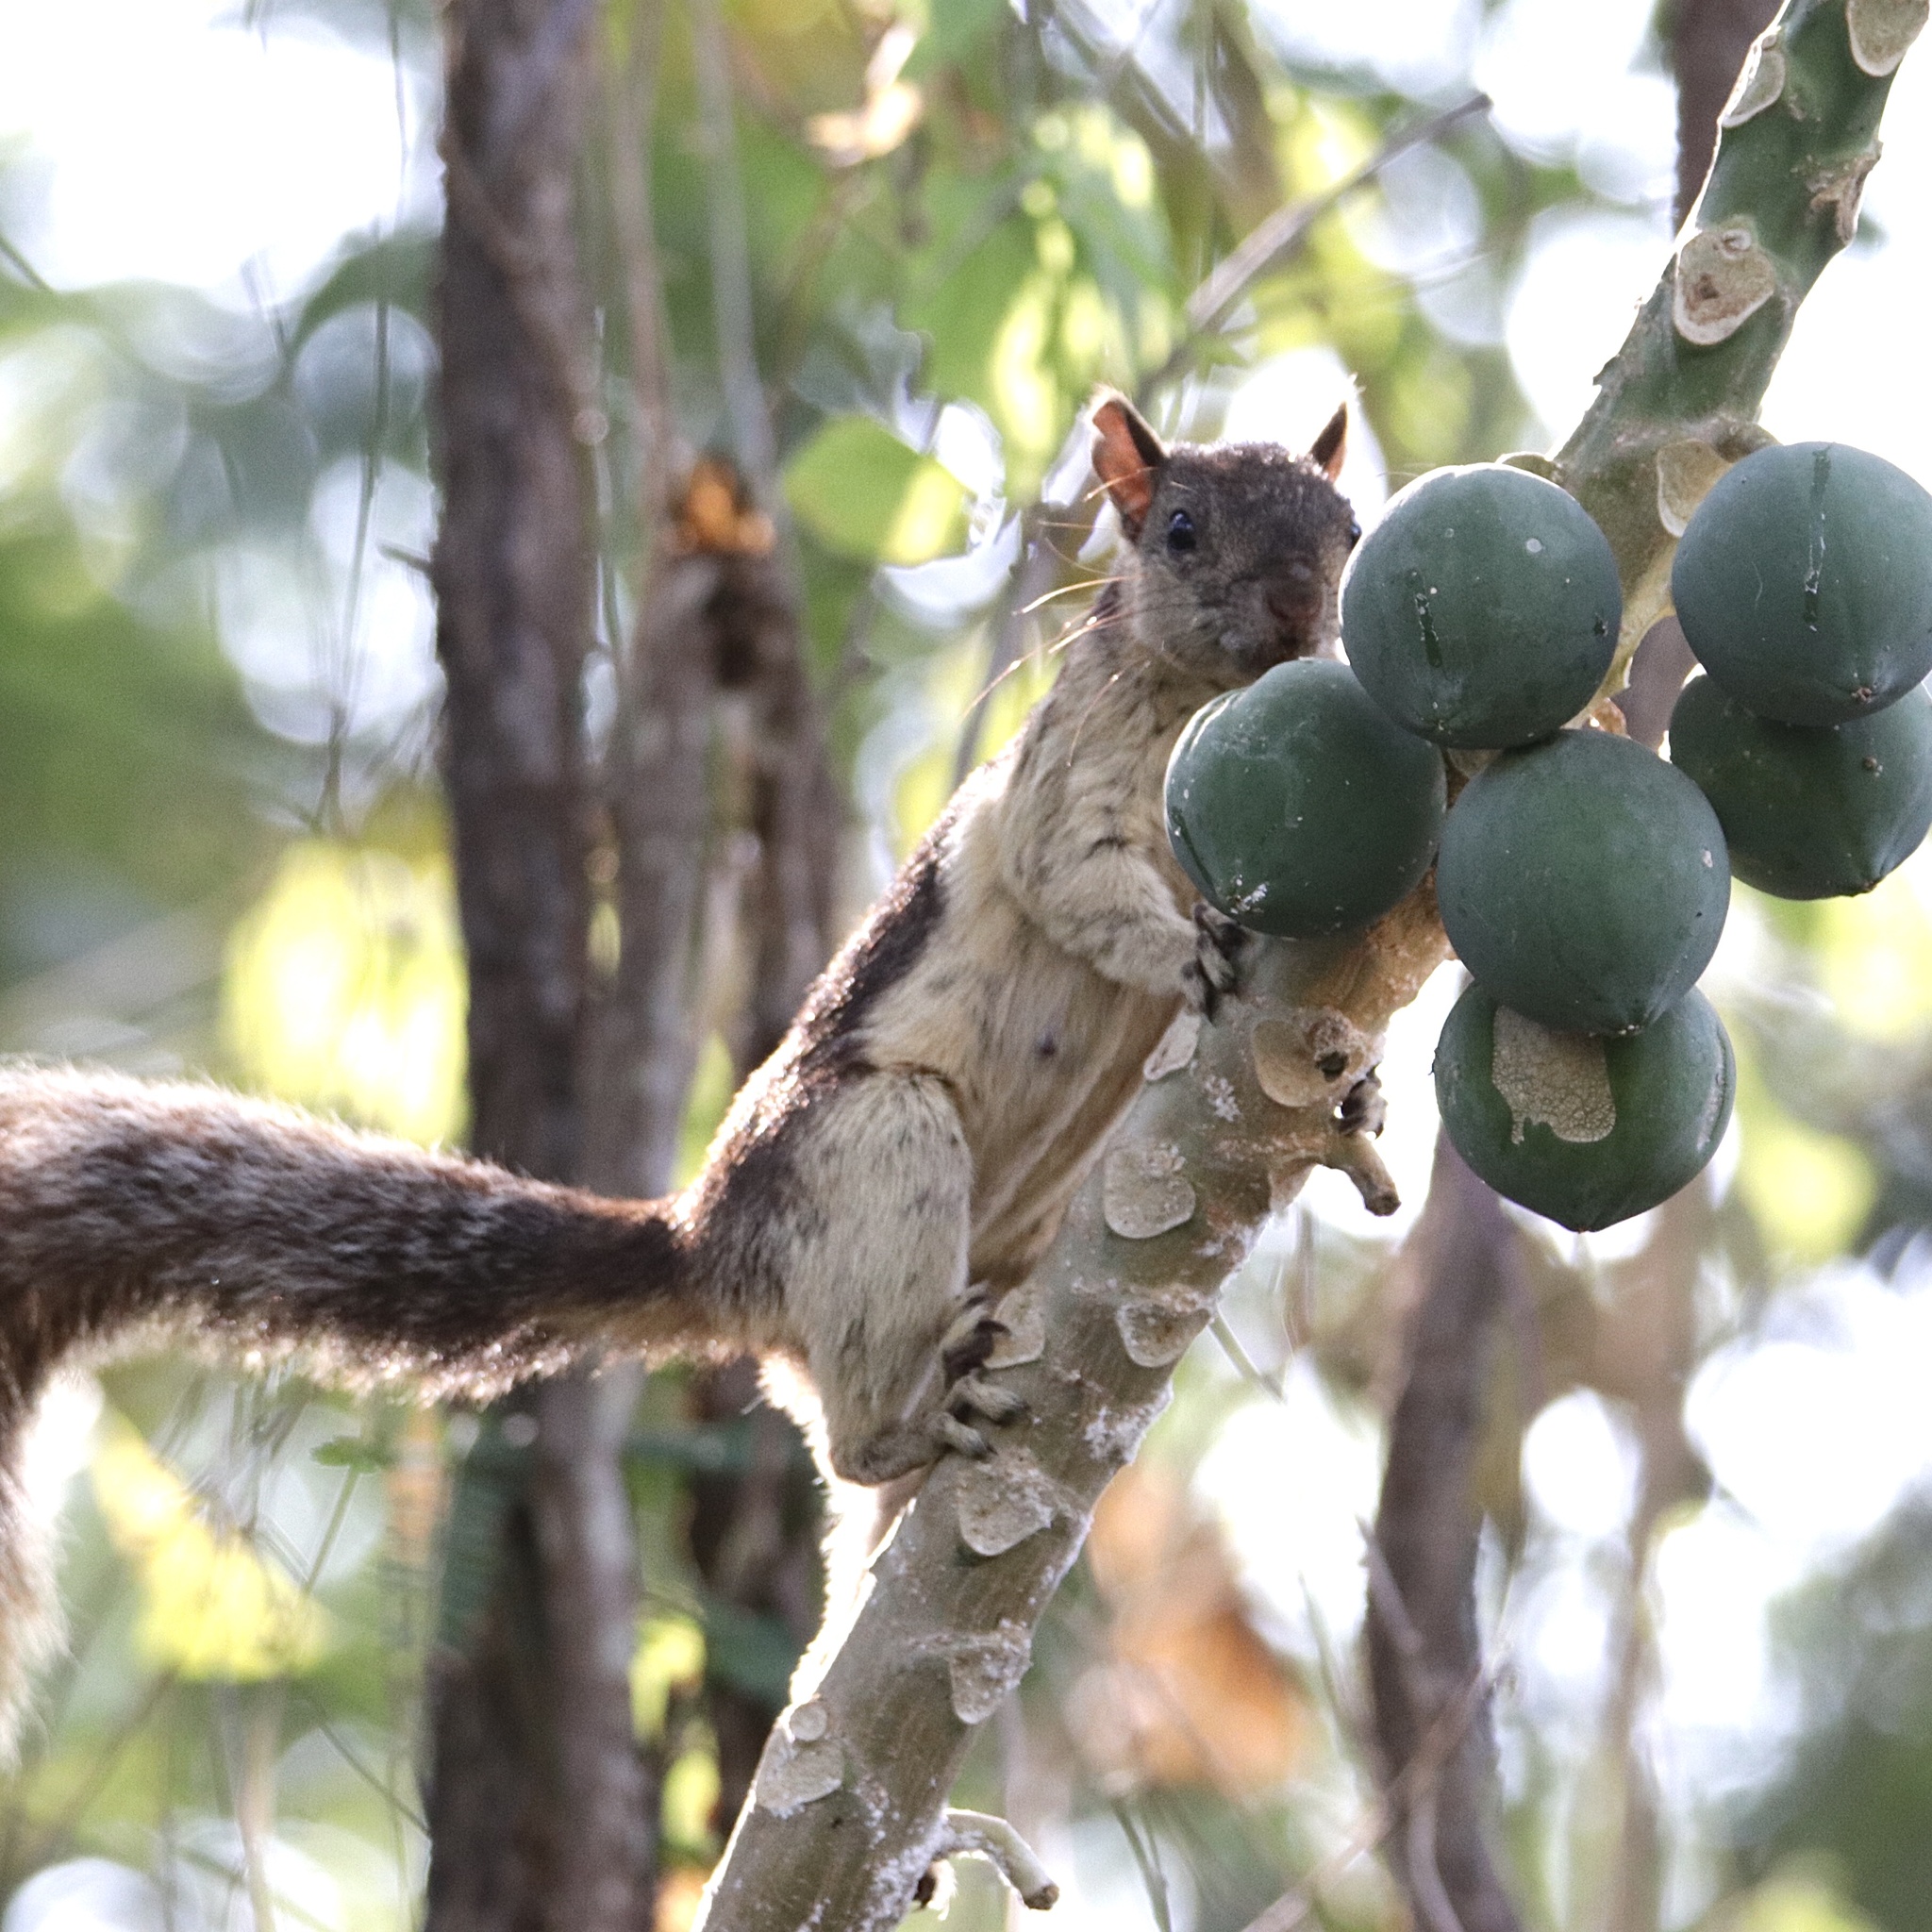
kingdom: Animalia
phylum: Chordata
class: Mammalia
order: Rodentia
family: Sciuridae
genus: Sciurus
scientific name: Sciurus variegatoides
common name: Variegated squirrel
